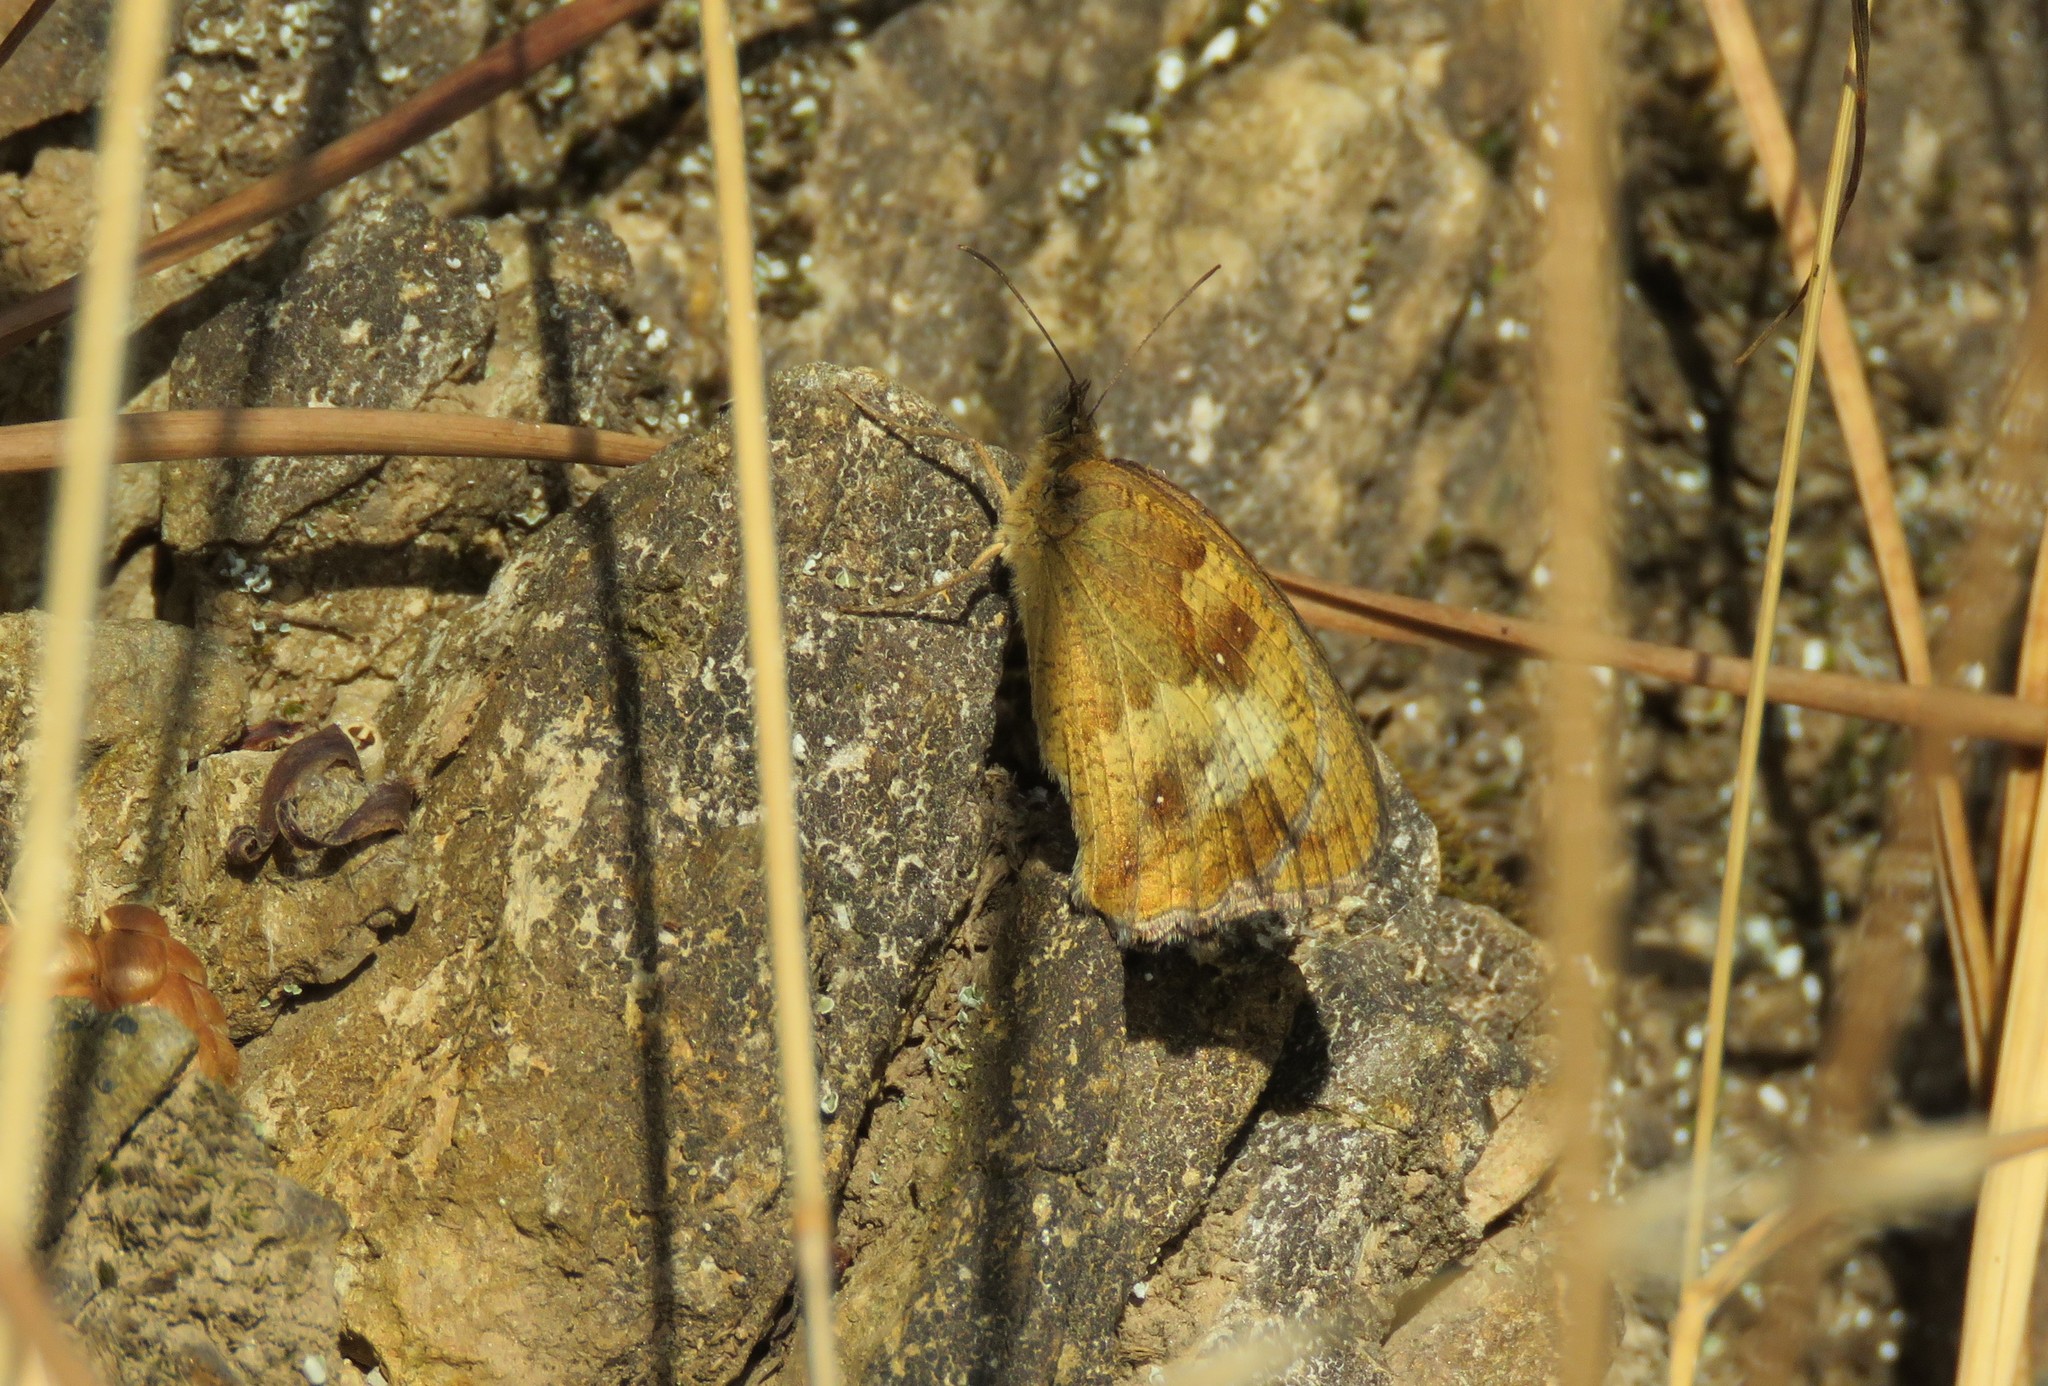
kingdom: Animalia
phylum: Arthropoda
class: Insecta
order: Lepidoptera
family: Nymphalidae
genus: Pyronia
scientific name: Pyronia tithonus
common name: Gatekeeper
